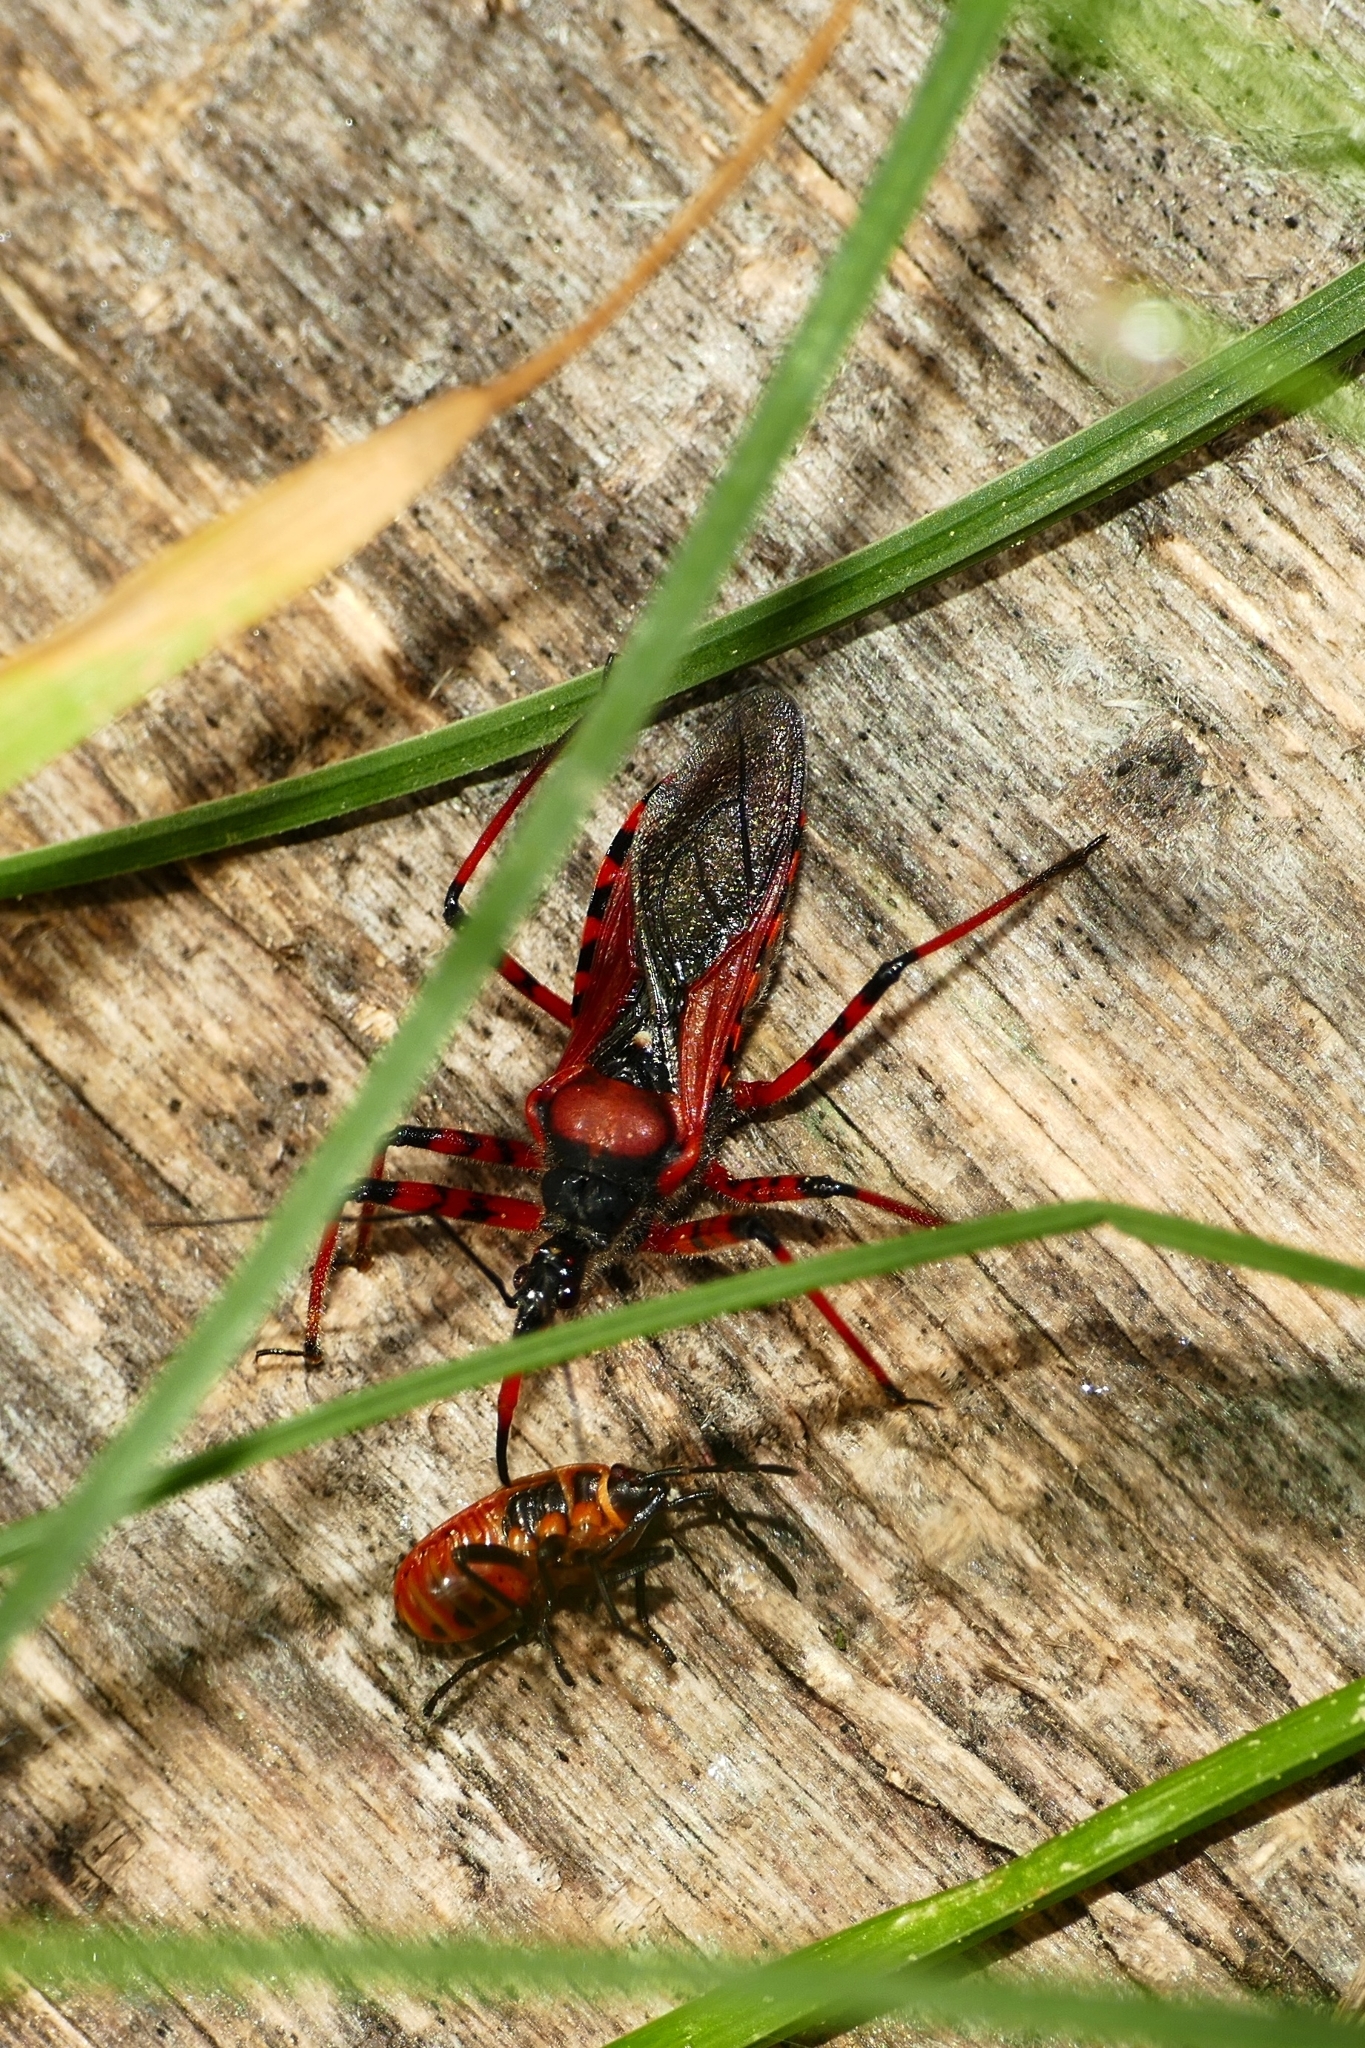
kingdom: Animalia
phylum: Arthropoda
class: Insecta
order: Hemiptera
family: Reduviidae
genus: Rhynocoris
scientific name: Rhynocoris iracundus
